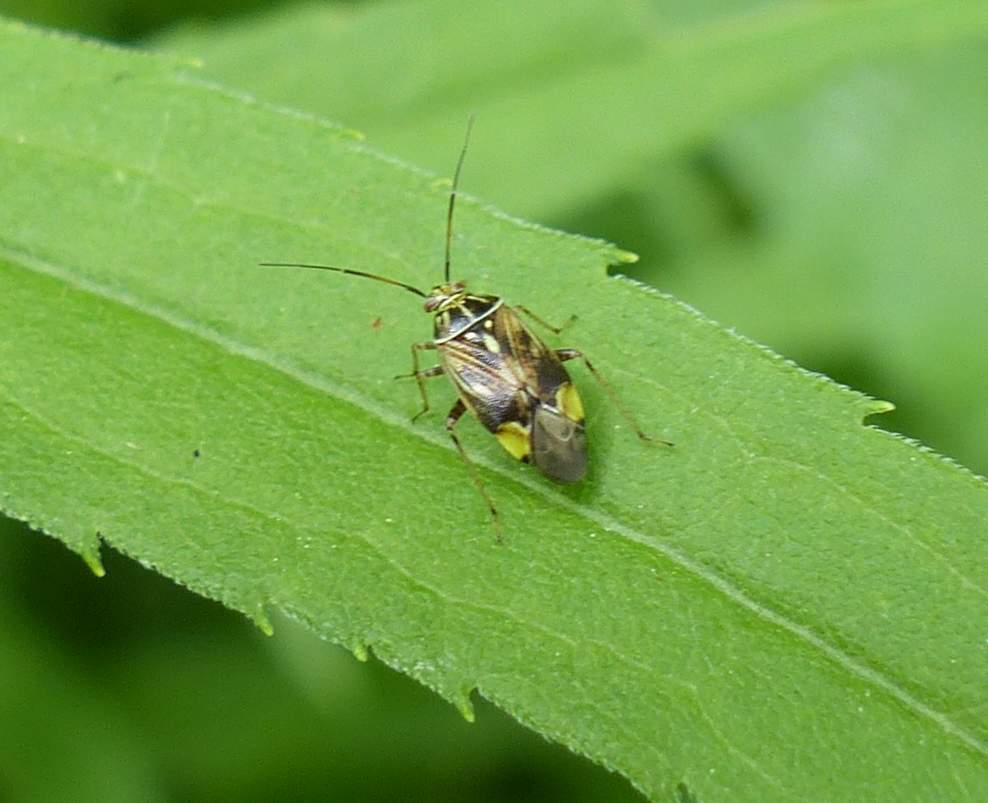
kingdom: Animalia
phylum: Arthropoda
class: Insecta
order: Hemiptera
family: Miridae
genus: Lygus
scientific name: Lygus lineolaris
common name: North american tarnished plant bug
